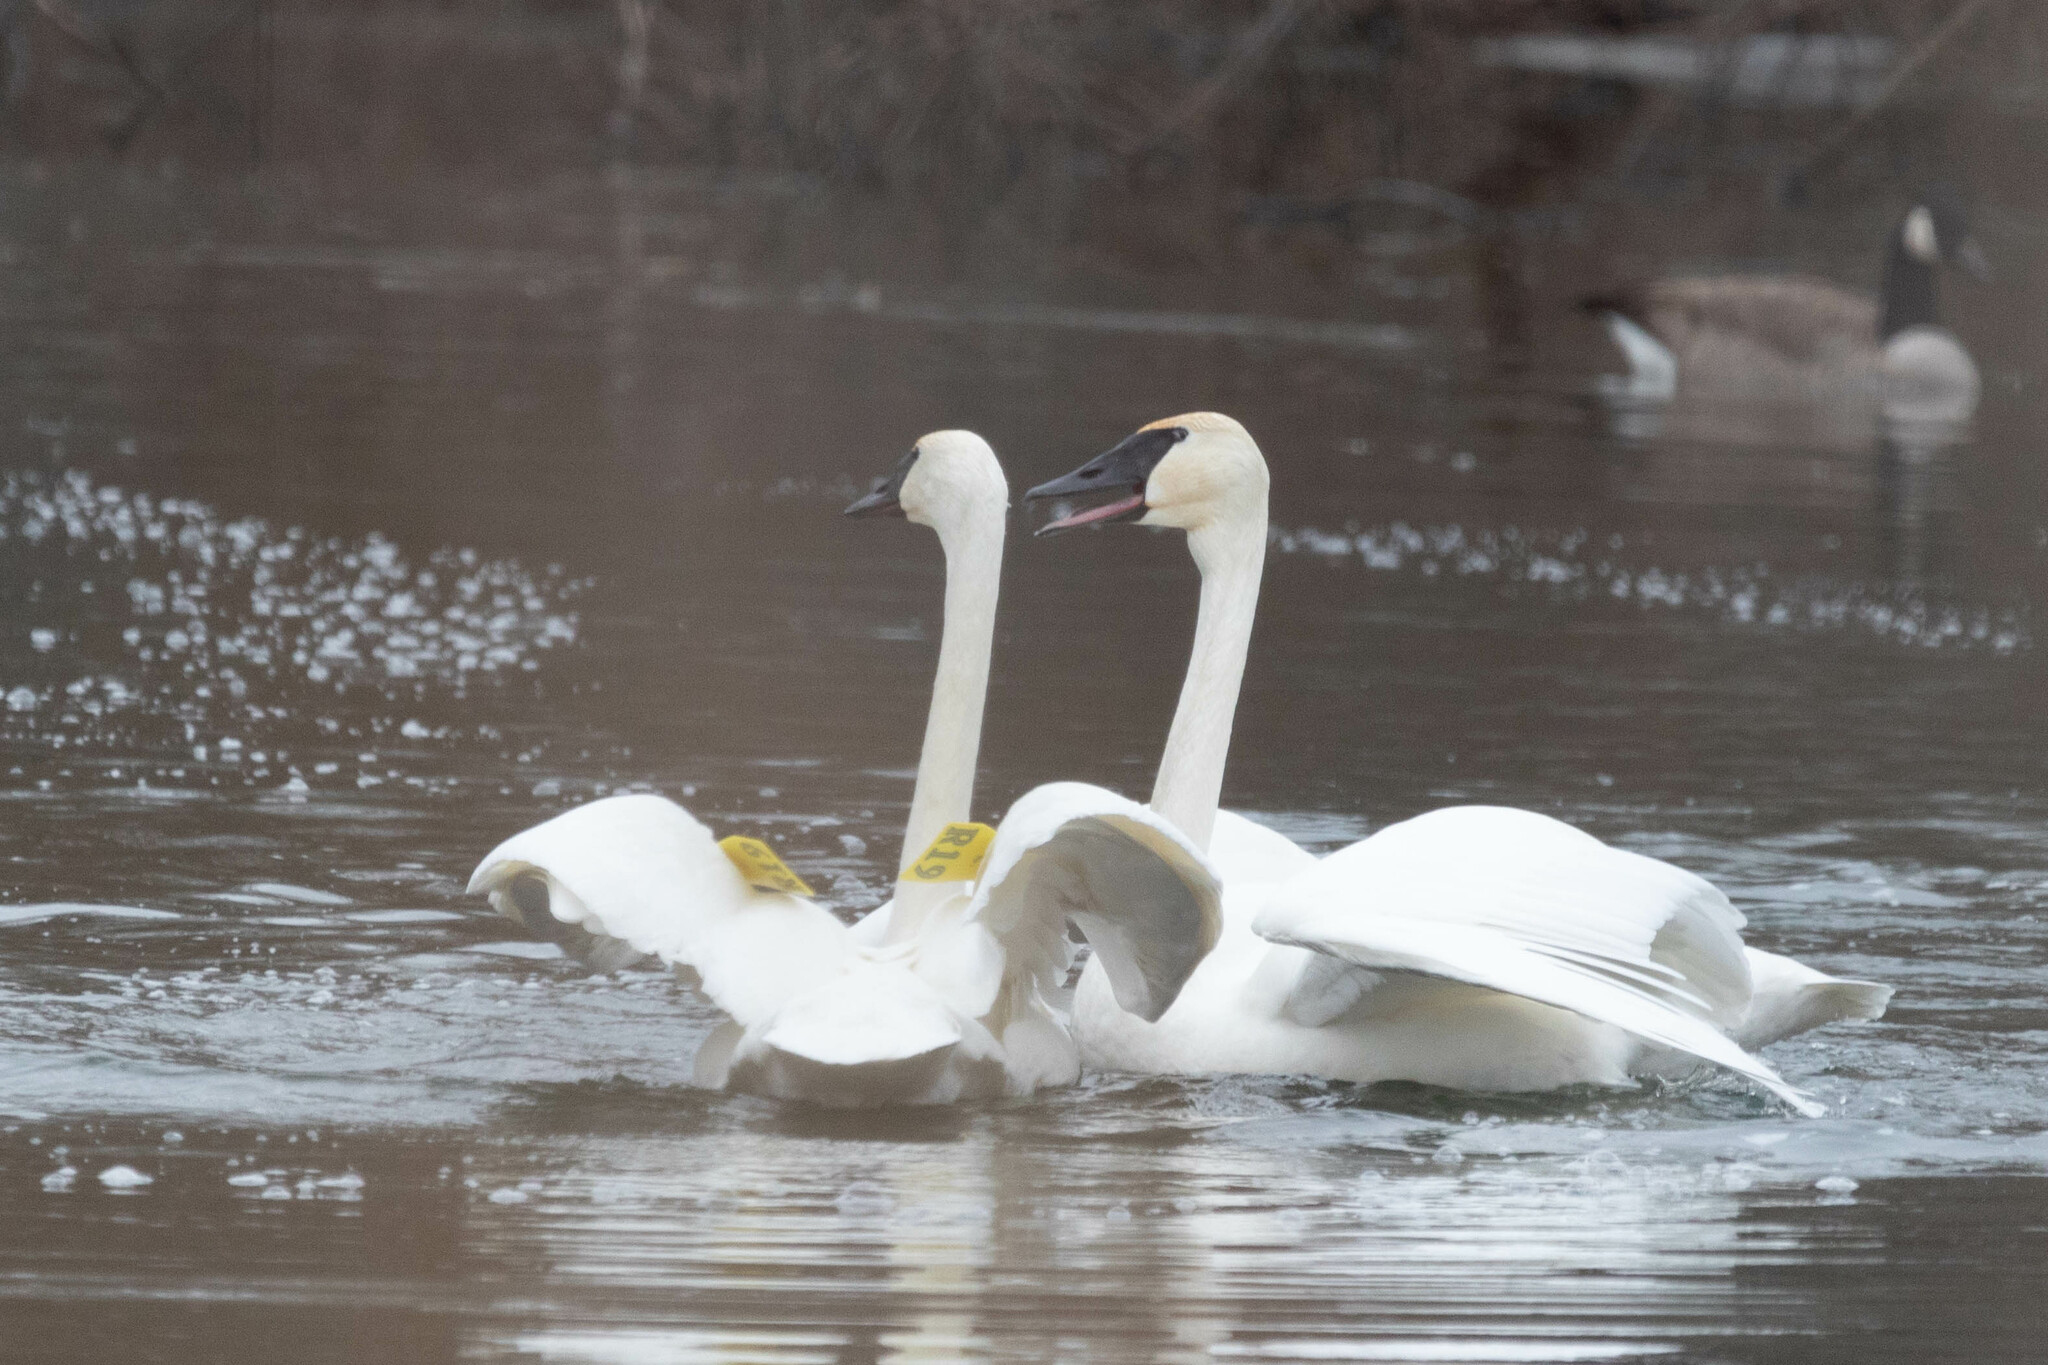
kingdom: Animalia
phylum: Chordata
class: Aves
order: Anseriformes
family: Anatidae
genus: Cygnus
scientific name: Cygnus buccinator
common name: Trumpeter swan
